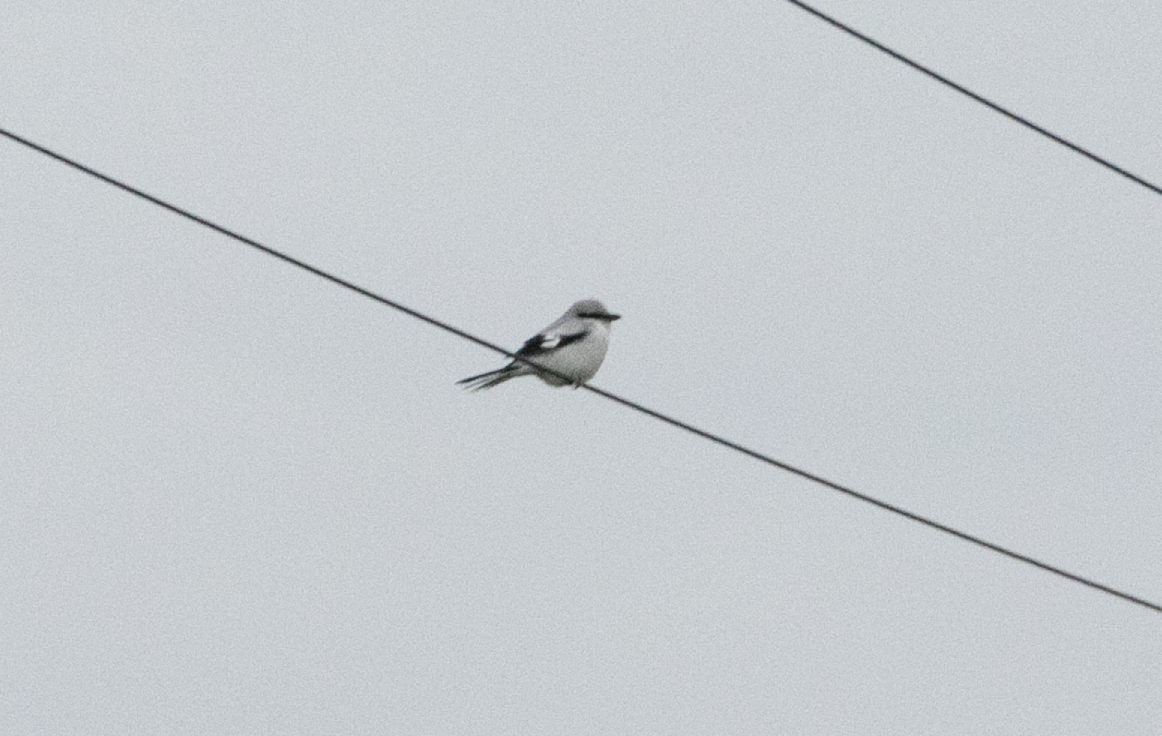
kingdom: Animalia
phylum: Chordata
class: Aves
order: Passeriformes
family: Laniidae
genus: Lanius
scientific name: Lanius excubitor
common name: Great grey shrike
